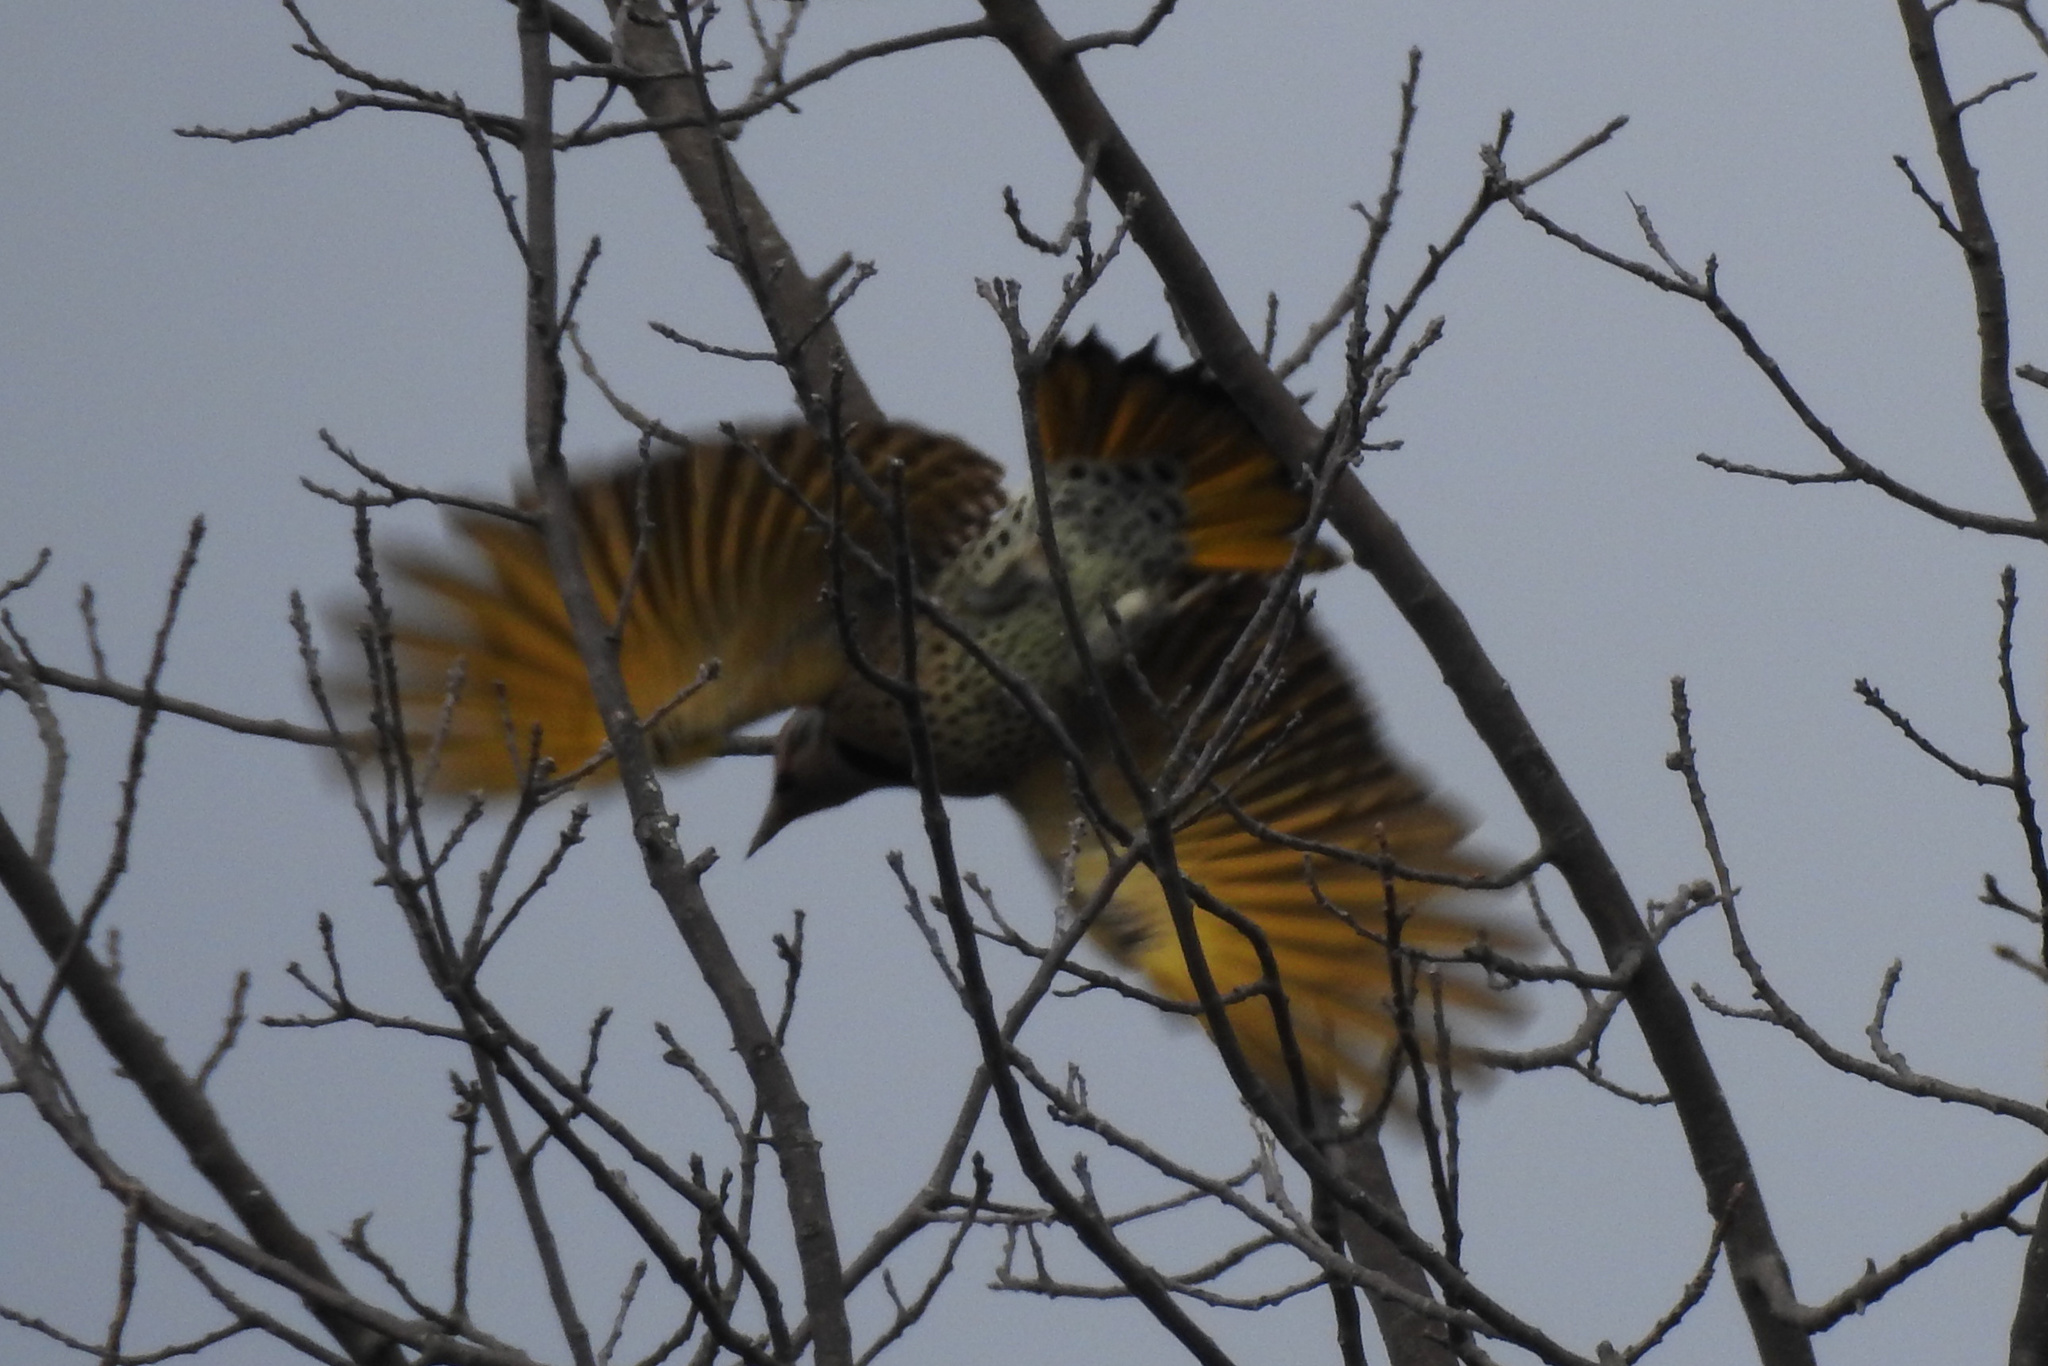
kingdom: Animalia
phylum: Chordata
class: Aves
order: Piciformes
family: Picidae
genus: Colaptes
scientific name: Colaptes auratus
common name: Northern flicker
